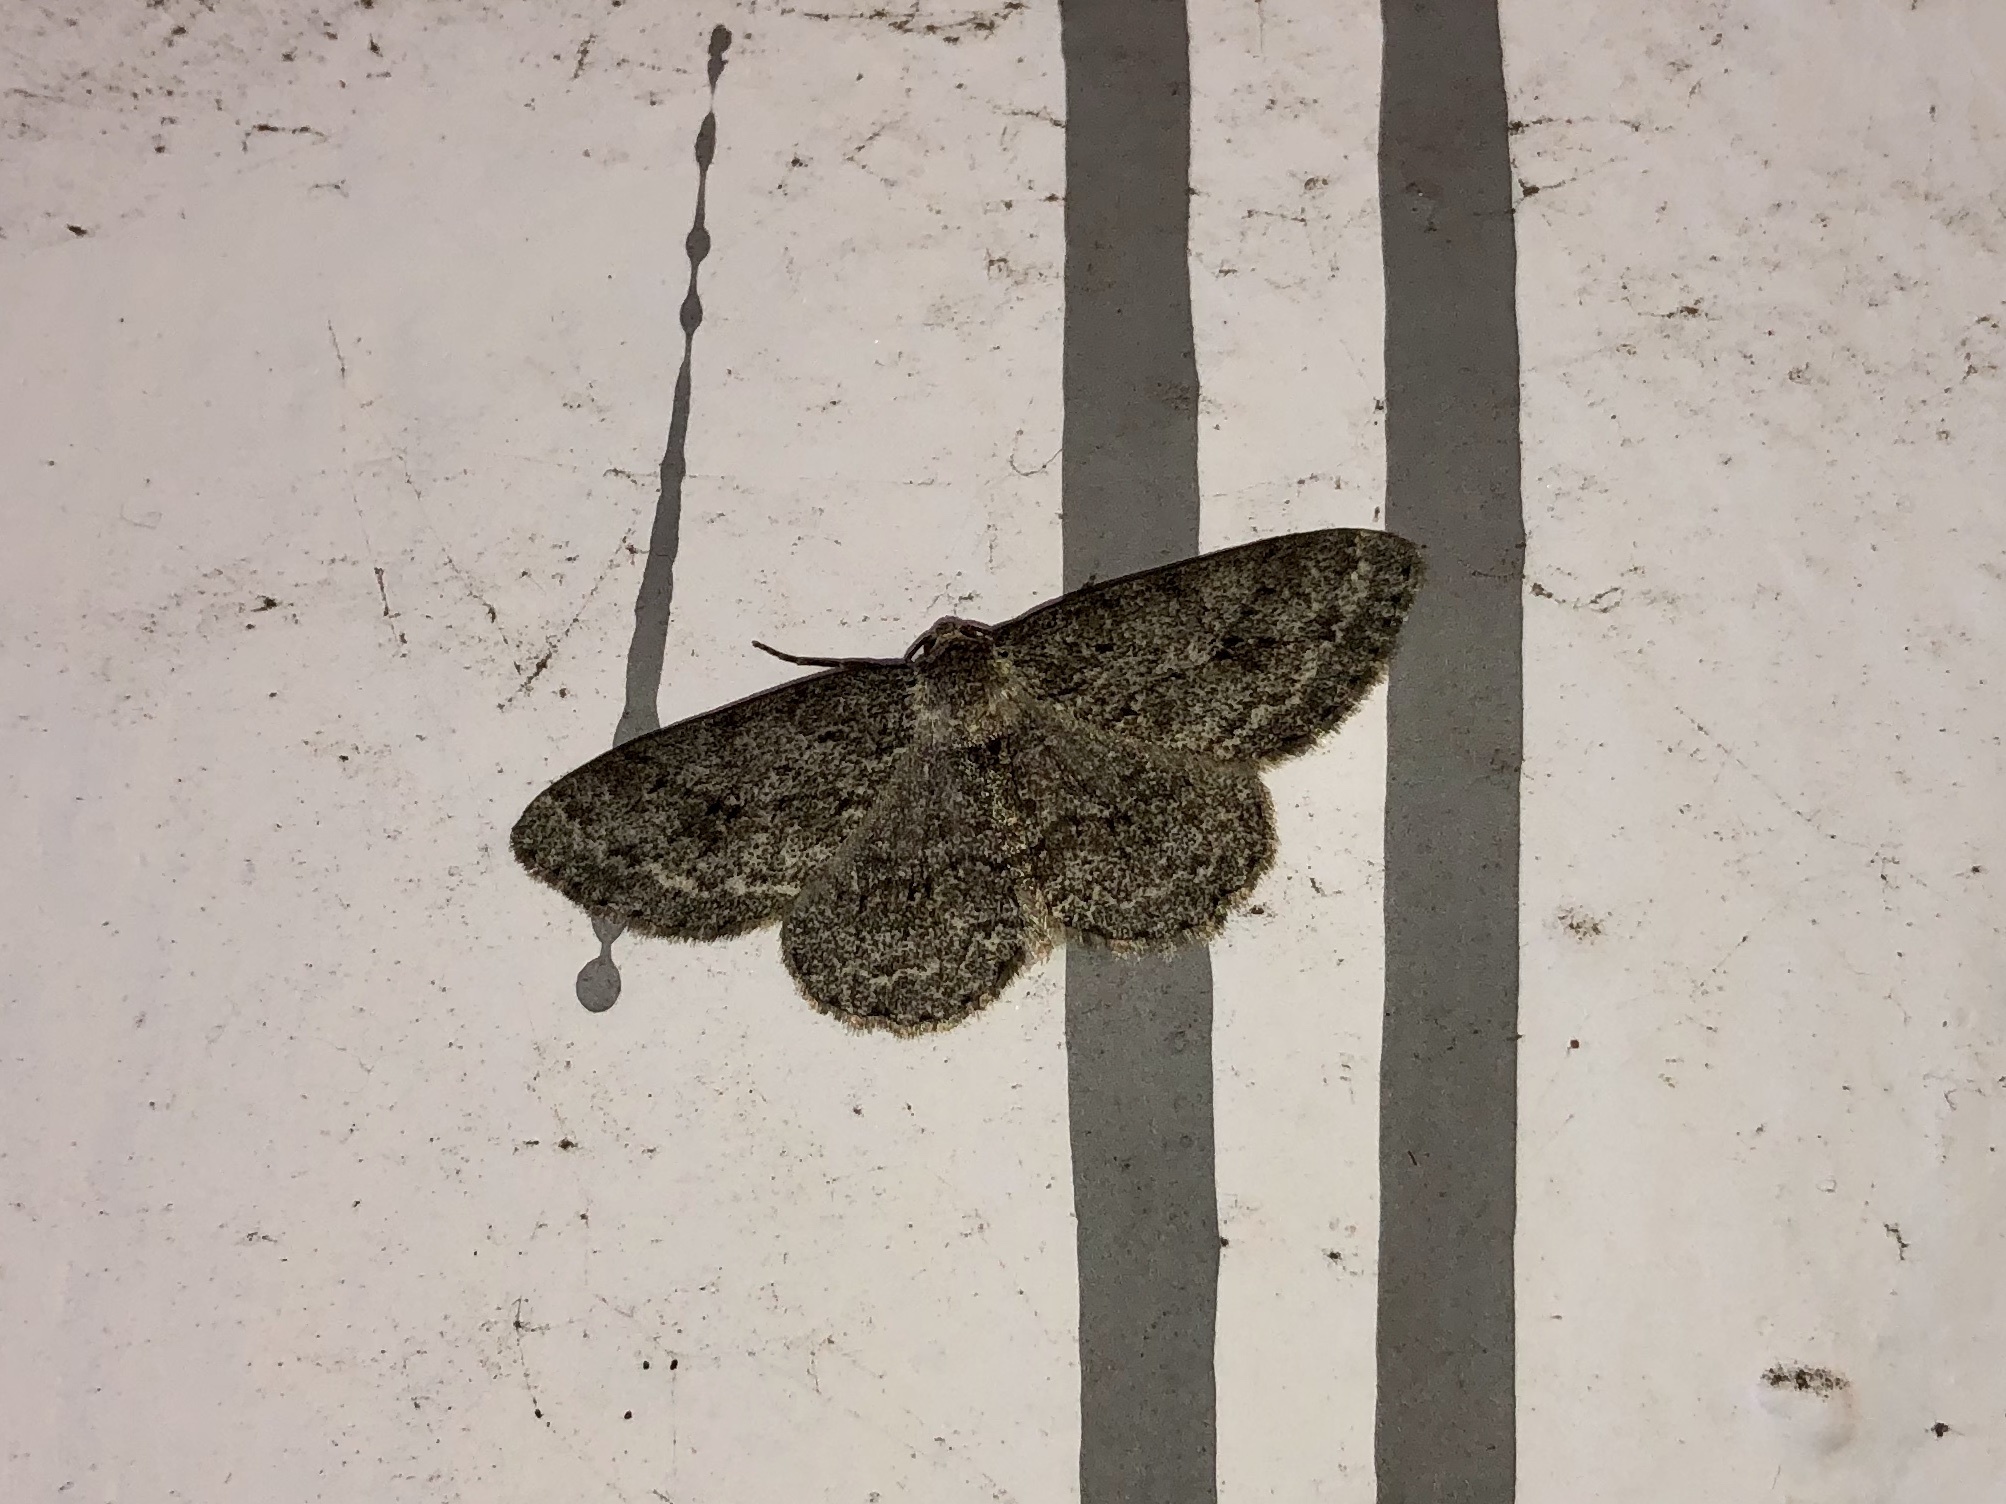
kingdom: Animalia
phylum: Arthropoda
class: Insecta
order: Lepidoptera
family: Geometridae
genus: Ectropis
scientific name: Ectropis crepuscularia
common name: Engrailed
